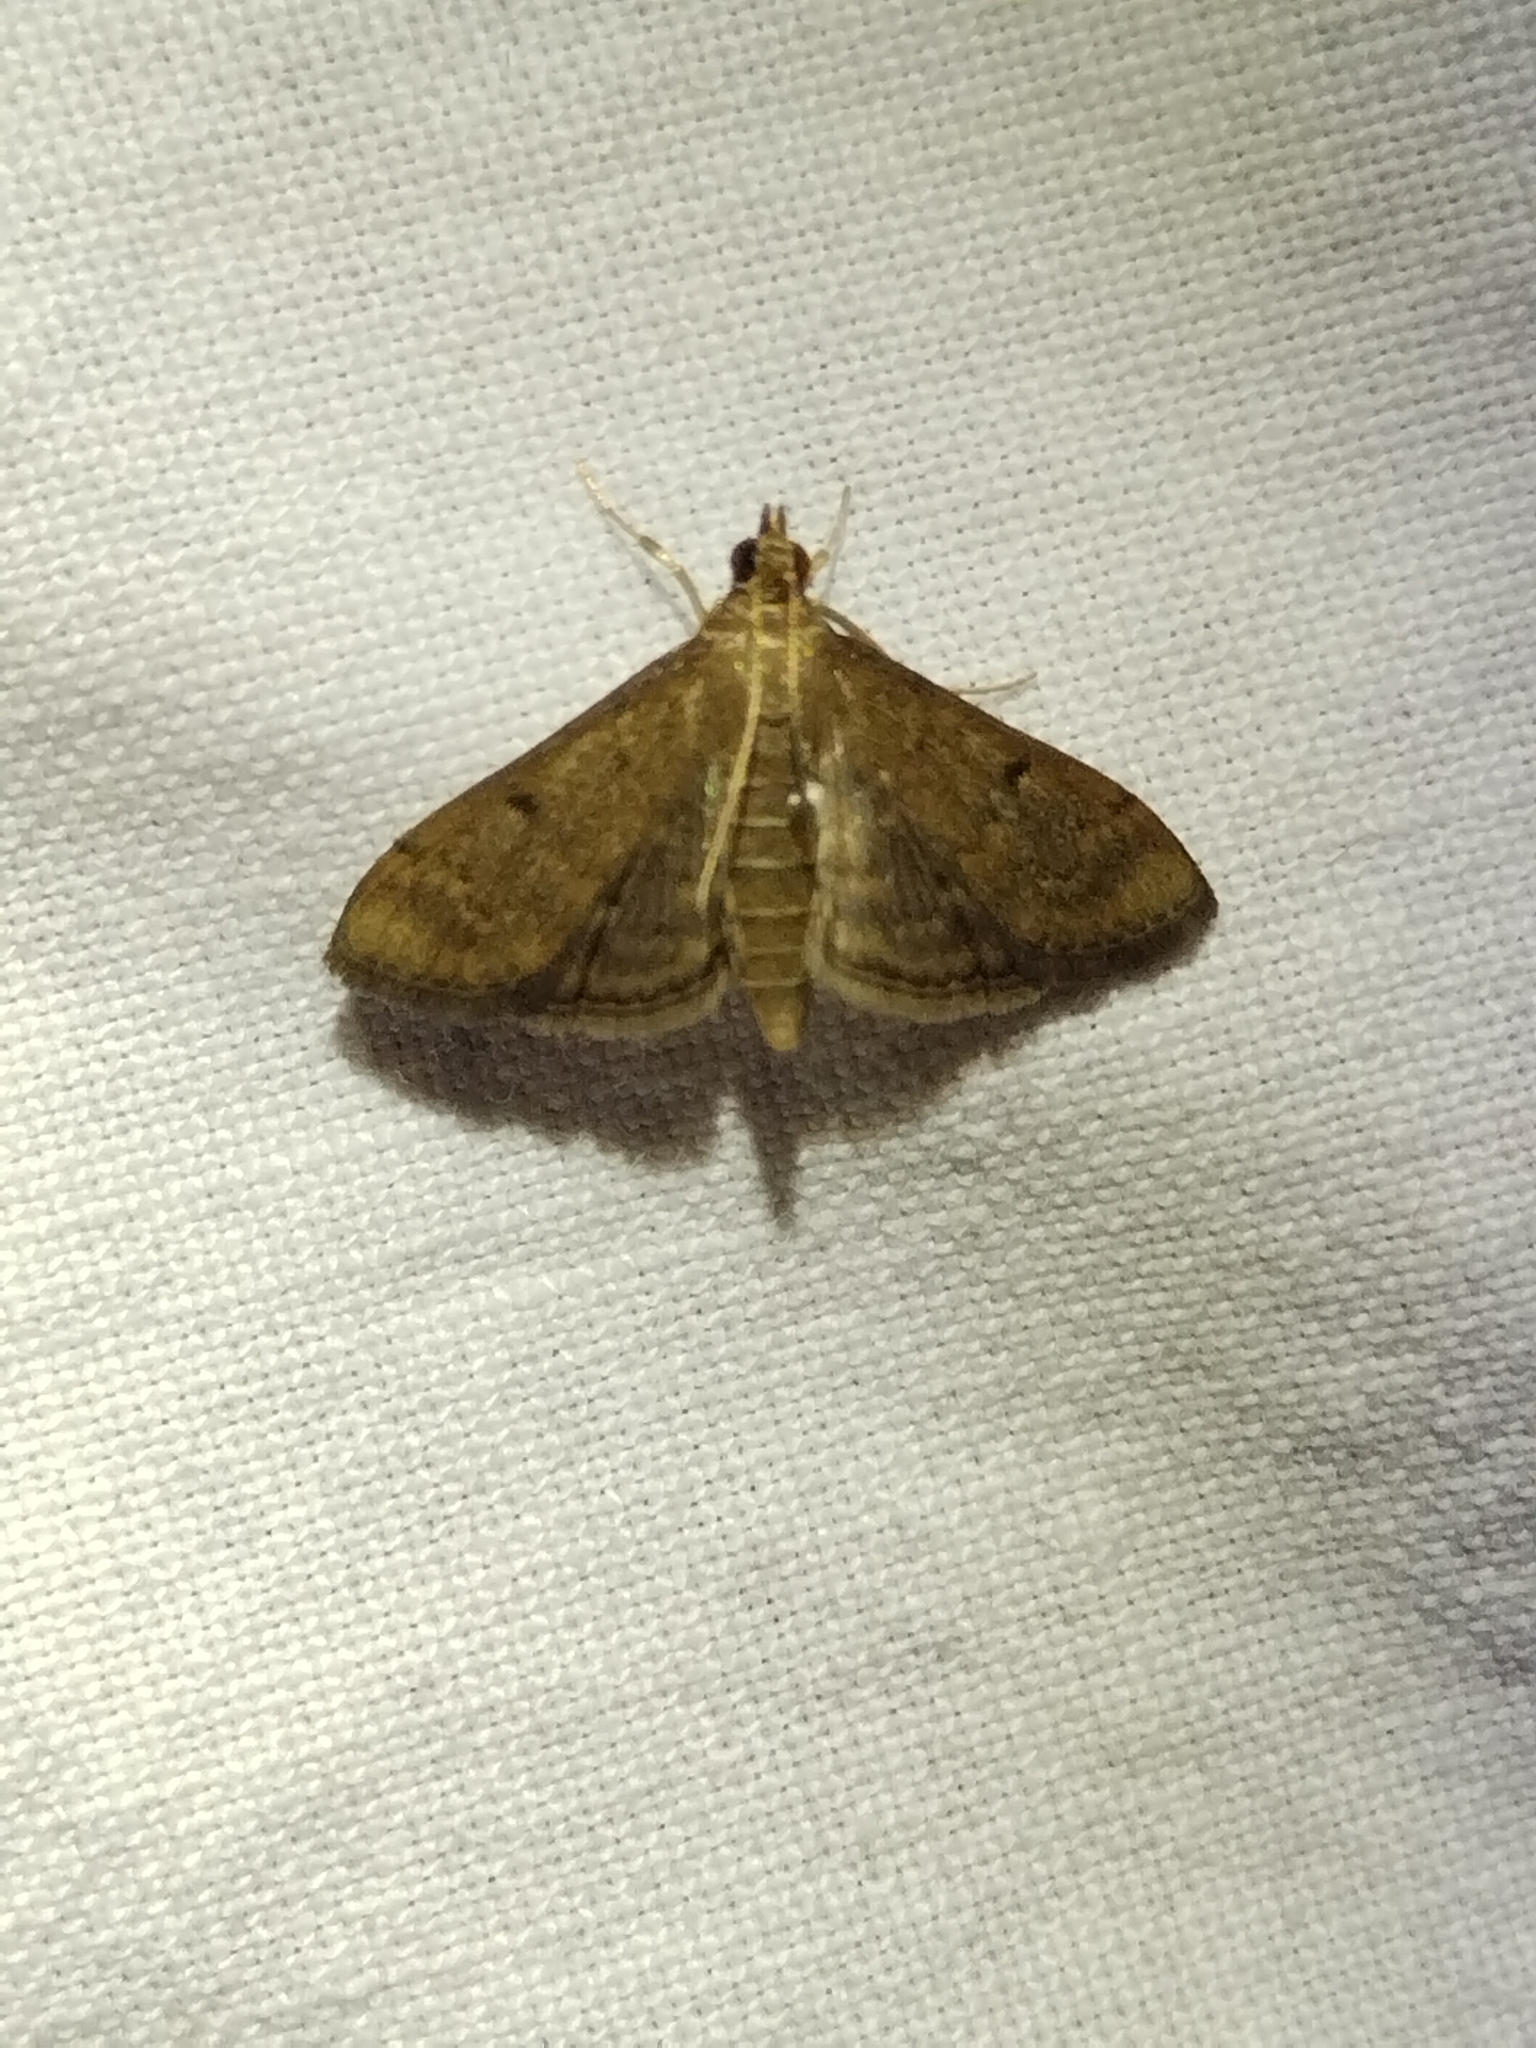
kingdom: Animalia
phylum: Arthropoda
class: Insecta
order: Lepidoptera
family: Crambidae
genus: Herpetogramma
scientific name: Herpetogramma phaeopteralis
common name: Dusky herpetogramma moth
